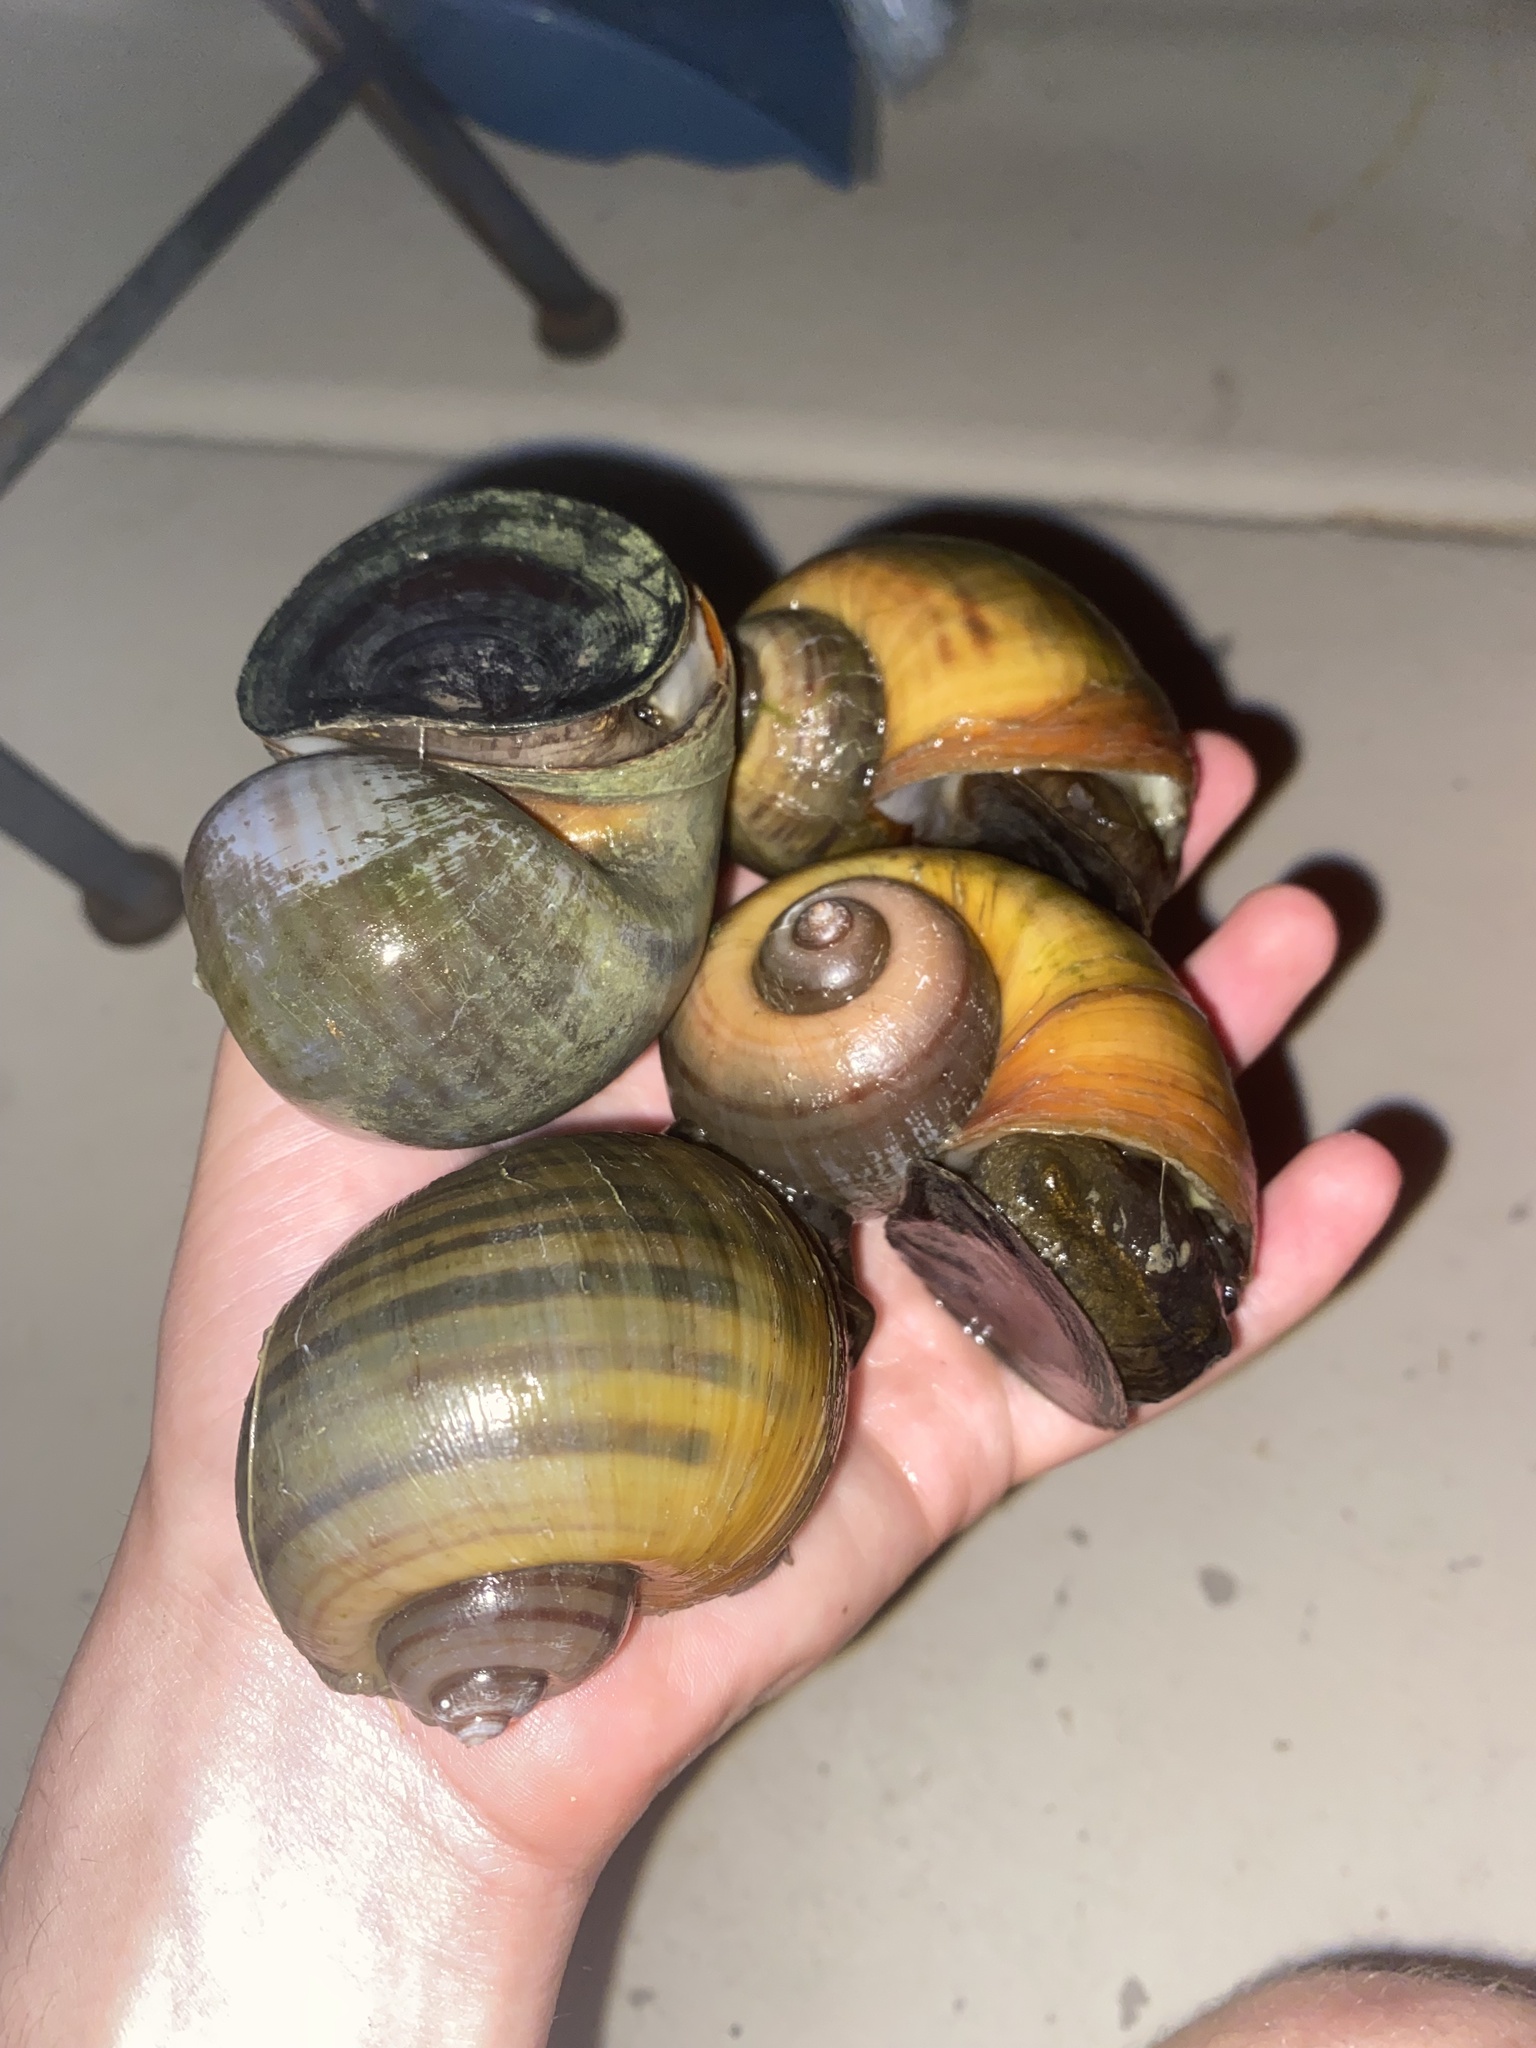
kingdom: Animalia
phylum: Mollusca
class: Gastropoda
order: Architaenioglossa
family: Ampullariidae
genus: Pomacea
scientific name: Pomacea maculata
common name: Giant applesnail
